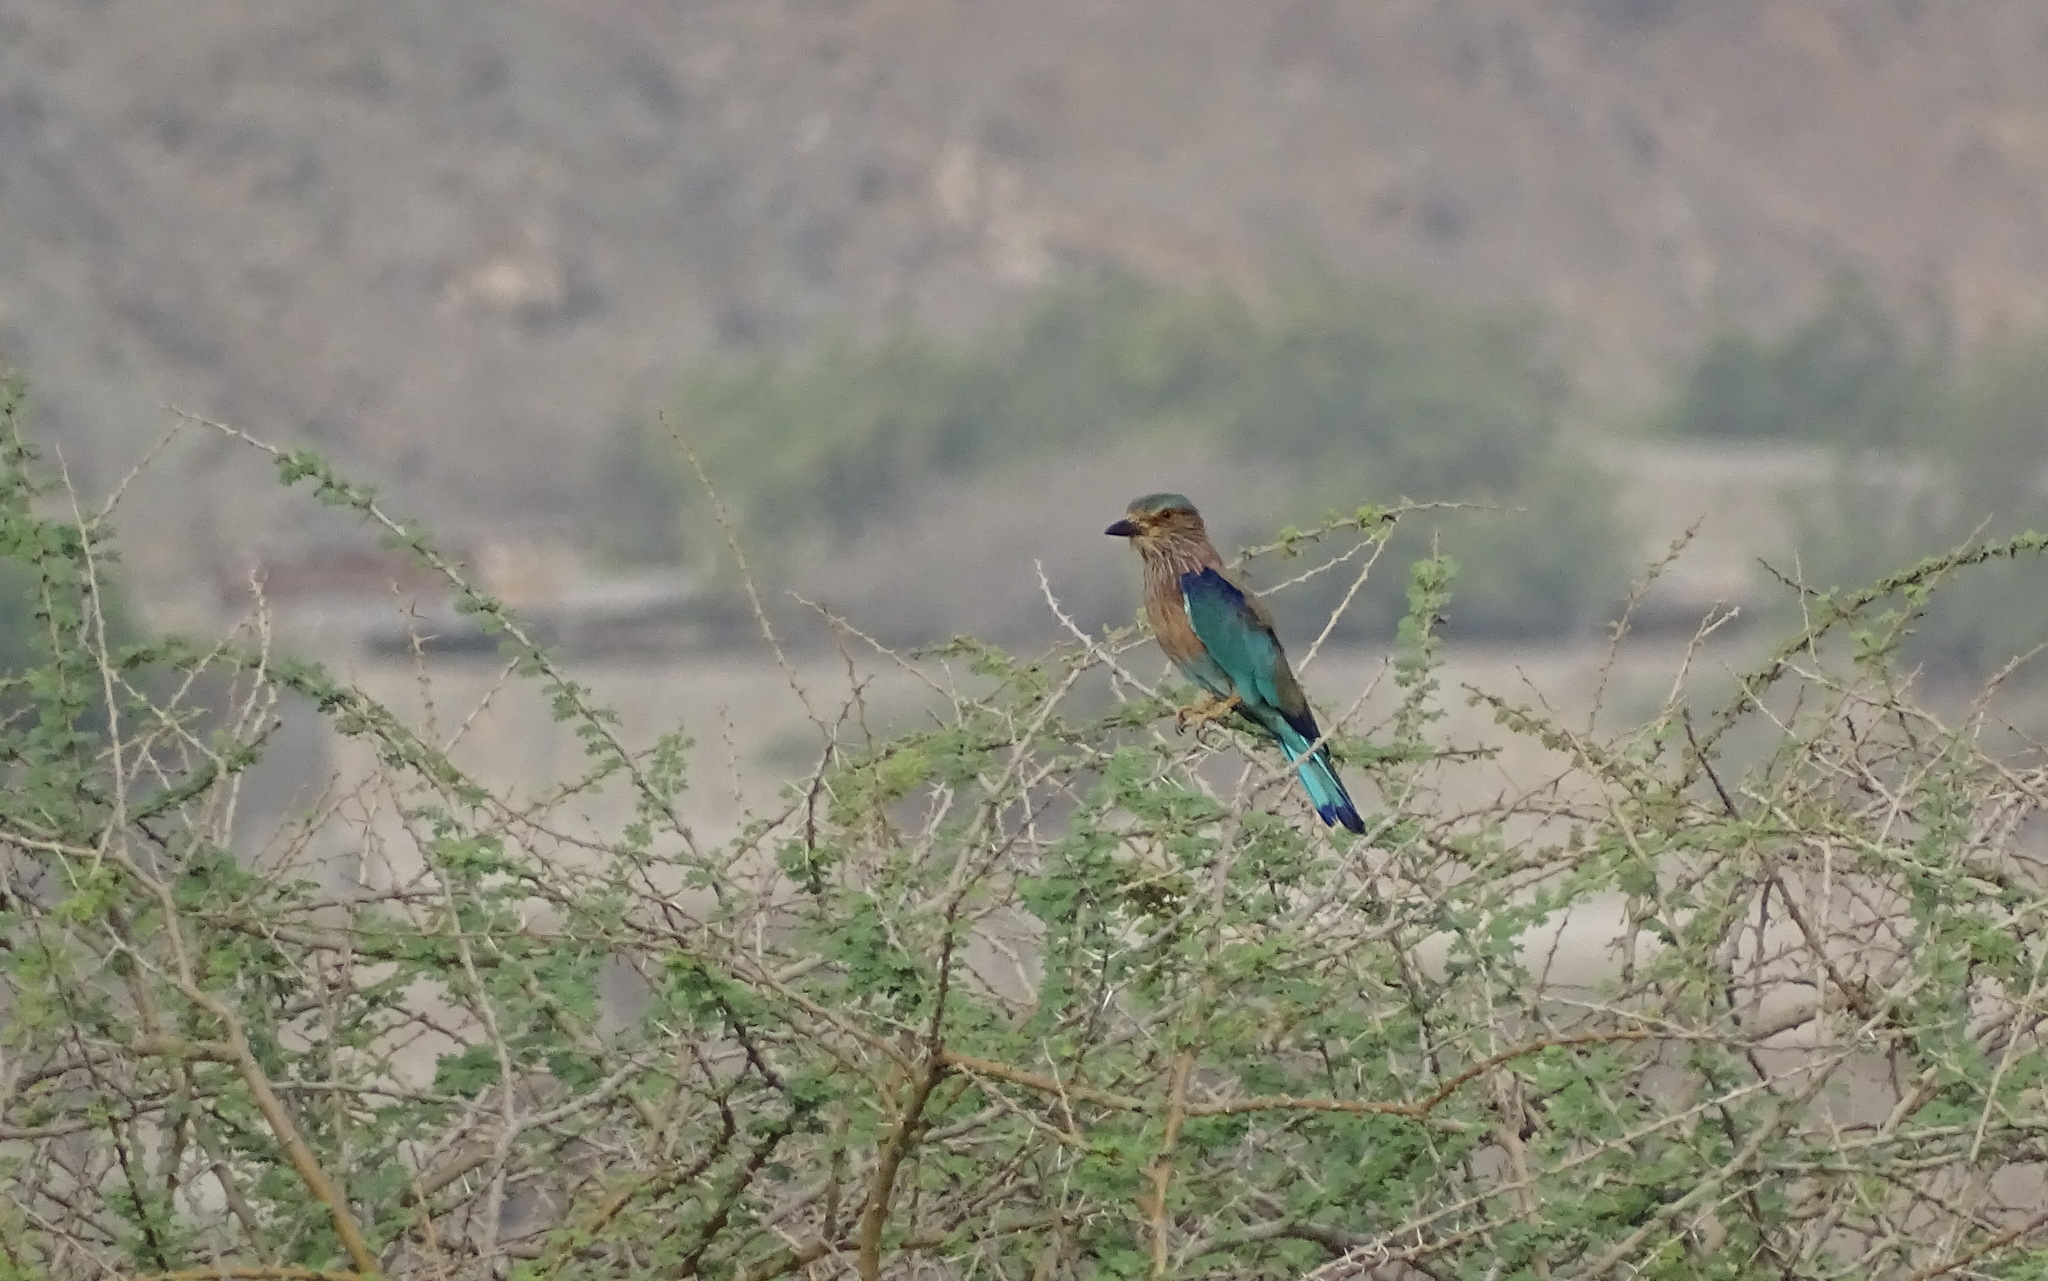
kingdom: Animalia
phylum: Chordata
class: Aves
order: Coraciiformes
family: Coraciidae
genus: Coracias
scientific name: Coracias benghalensis
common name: Indian roller
